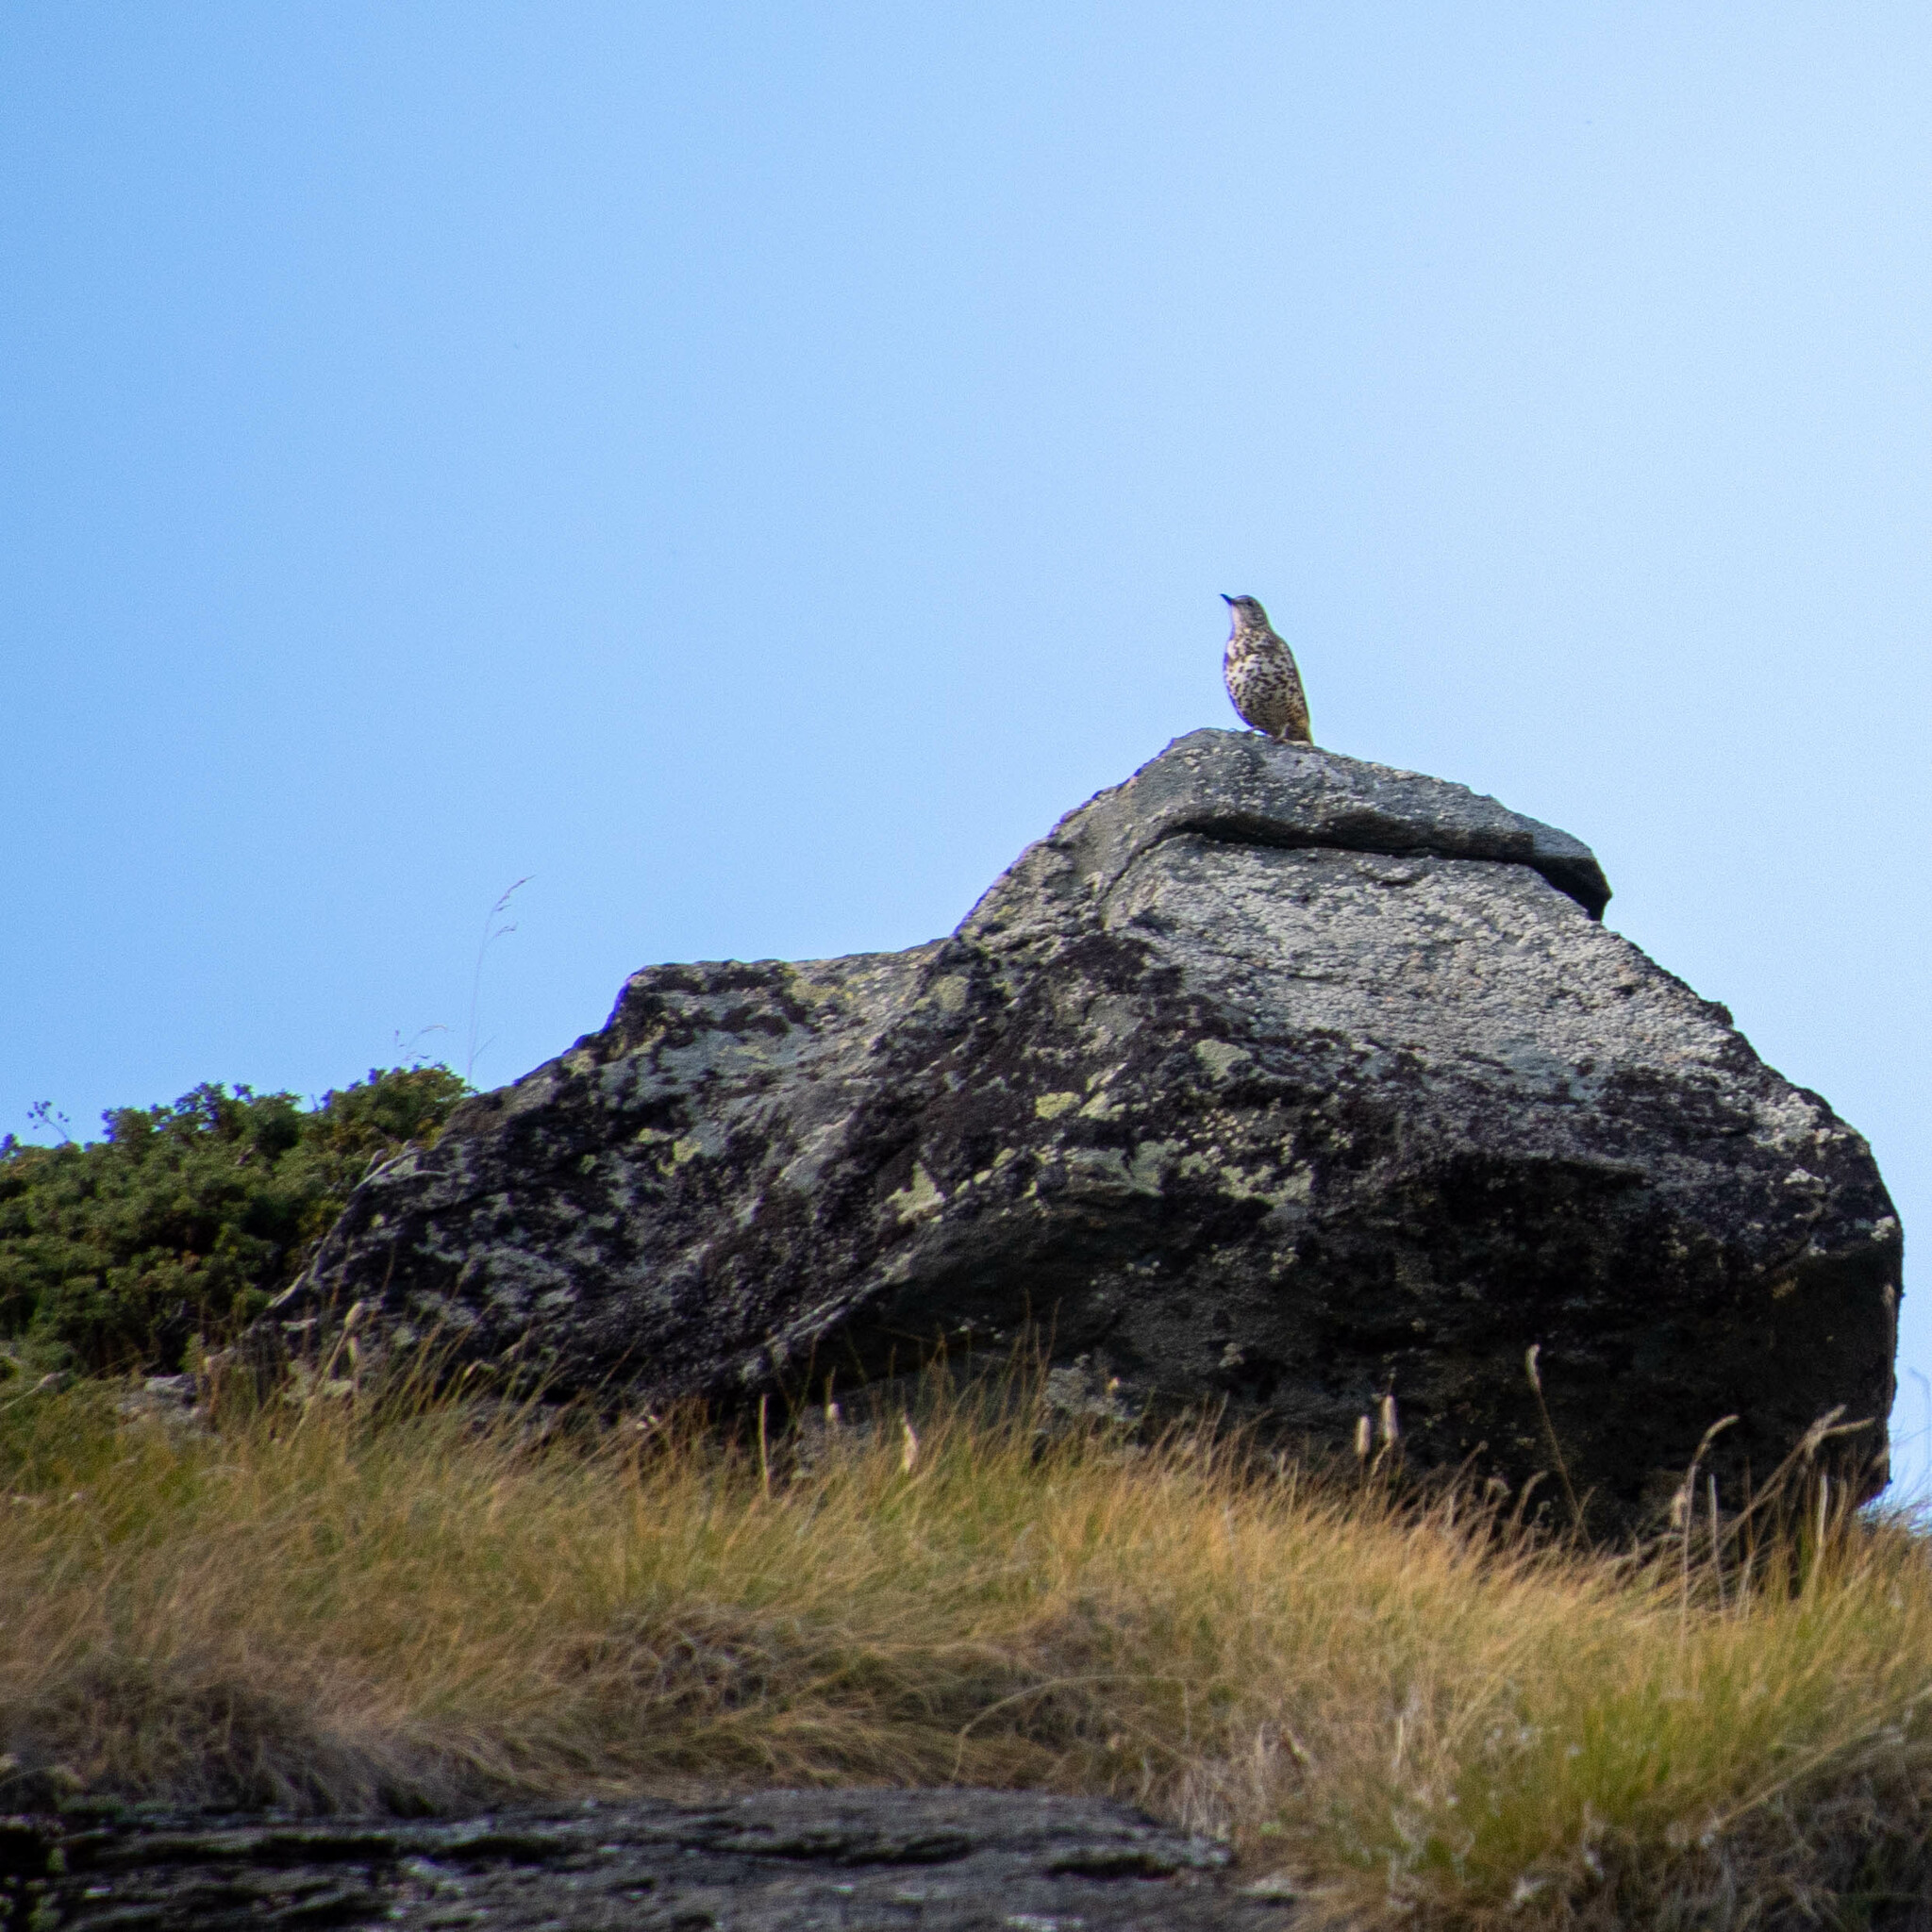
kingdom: Animalia
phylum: Chordata
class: Aves
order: Passeriformes
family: Turdidae
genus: Turdus
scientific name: Turdus viscivorus
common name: Mistle thrush
